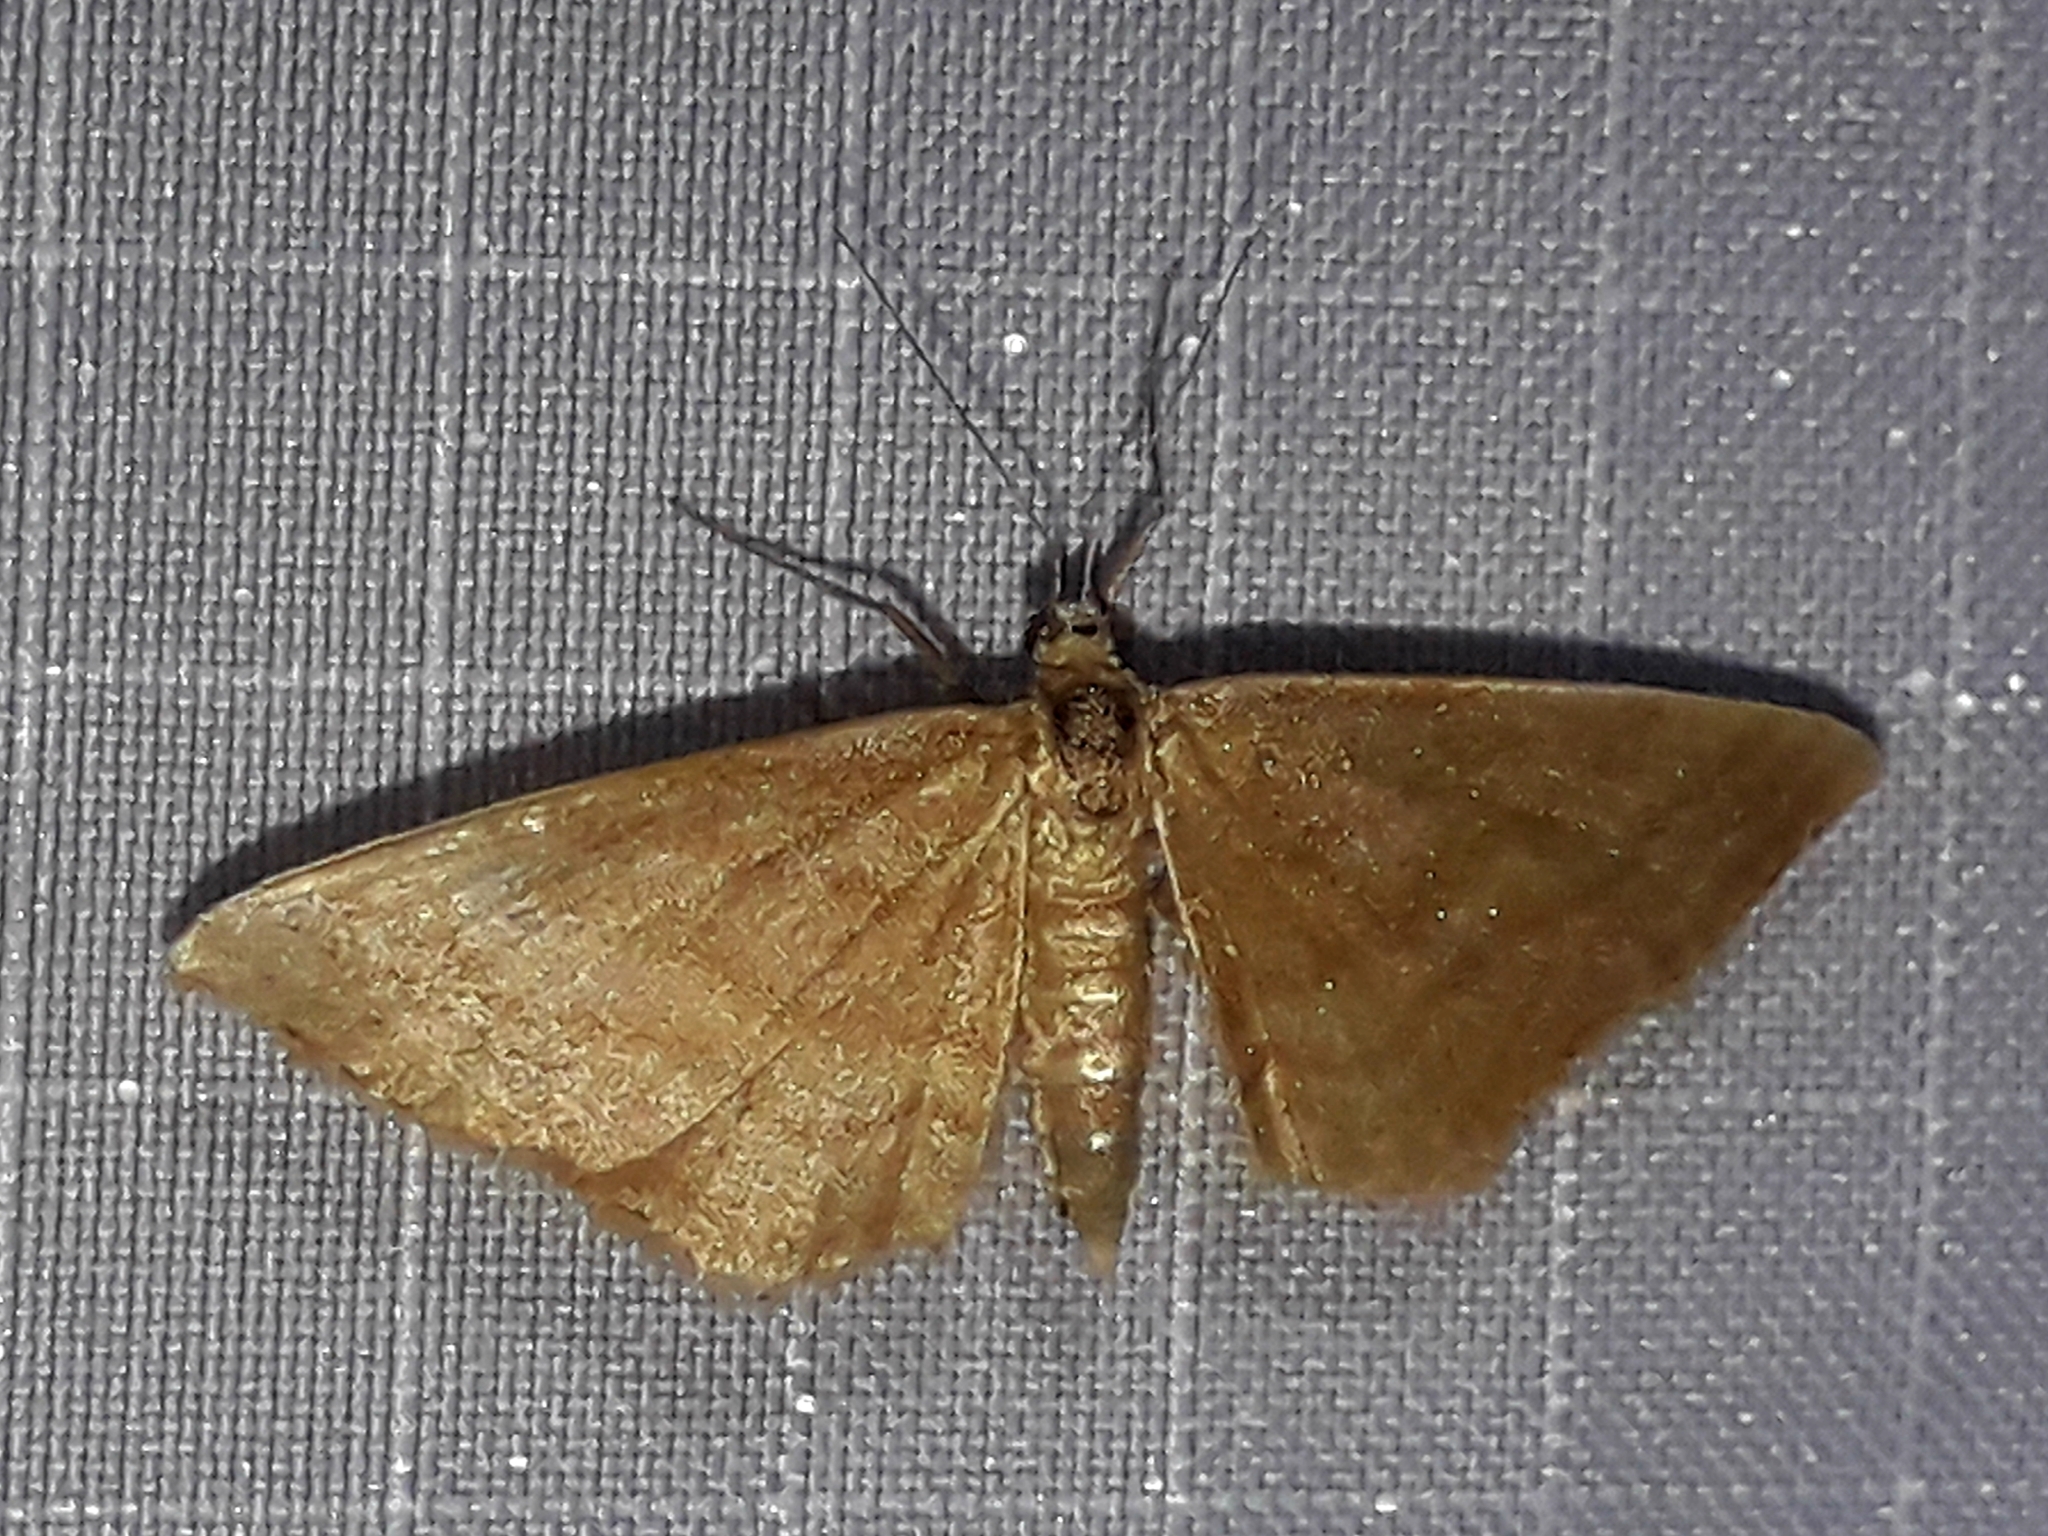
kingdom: Animalia
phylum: Arthropoda
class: Insecta
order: Lepidoptera
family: Geometridae
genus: Idaea
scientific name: Idaea ochrata
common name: Bright wave
